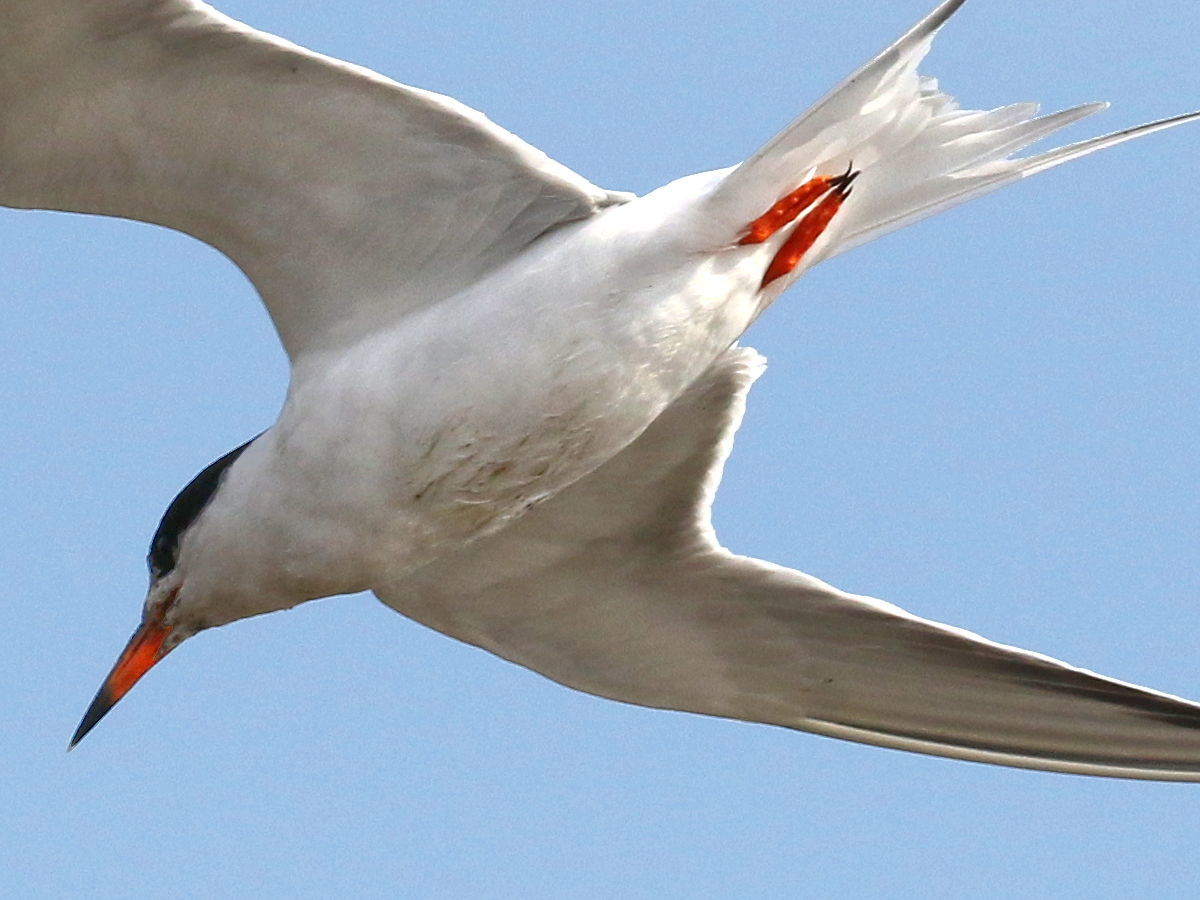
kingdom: Animalia
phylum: Chordata
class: Aves
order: Charadriiformes
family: Laridae
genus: Sterna
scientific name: Sterna forsteri
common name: Forster's tern
